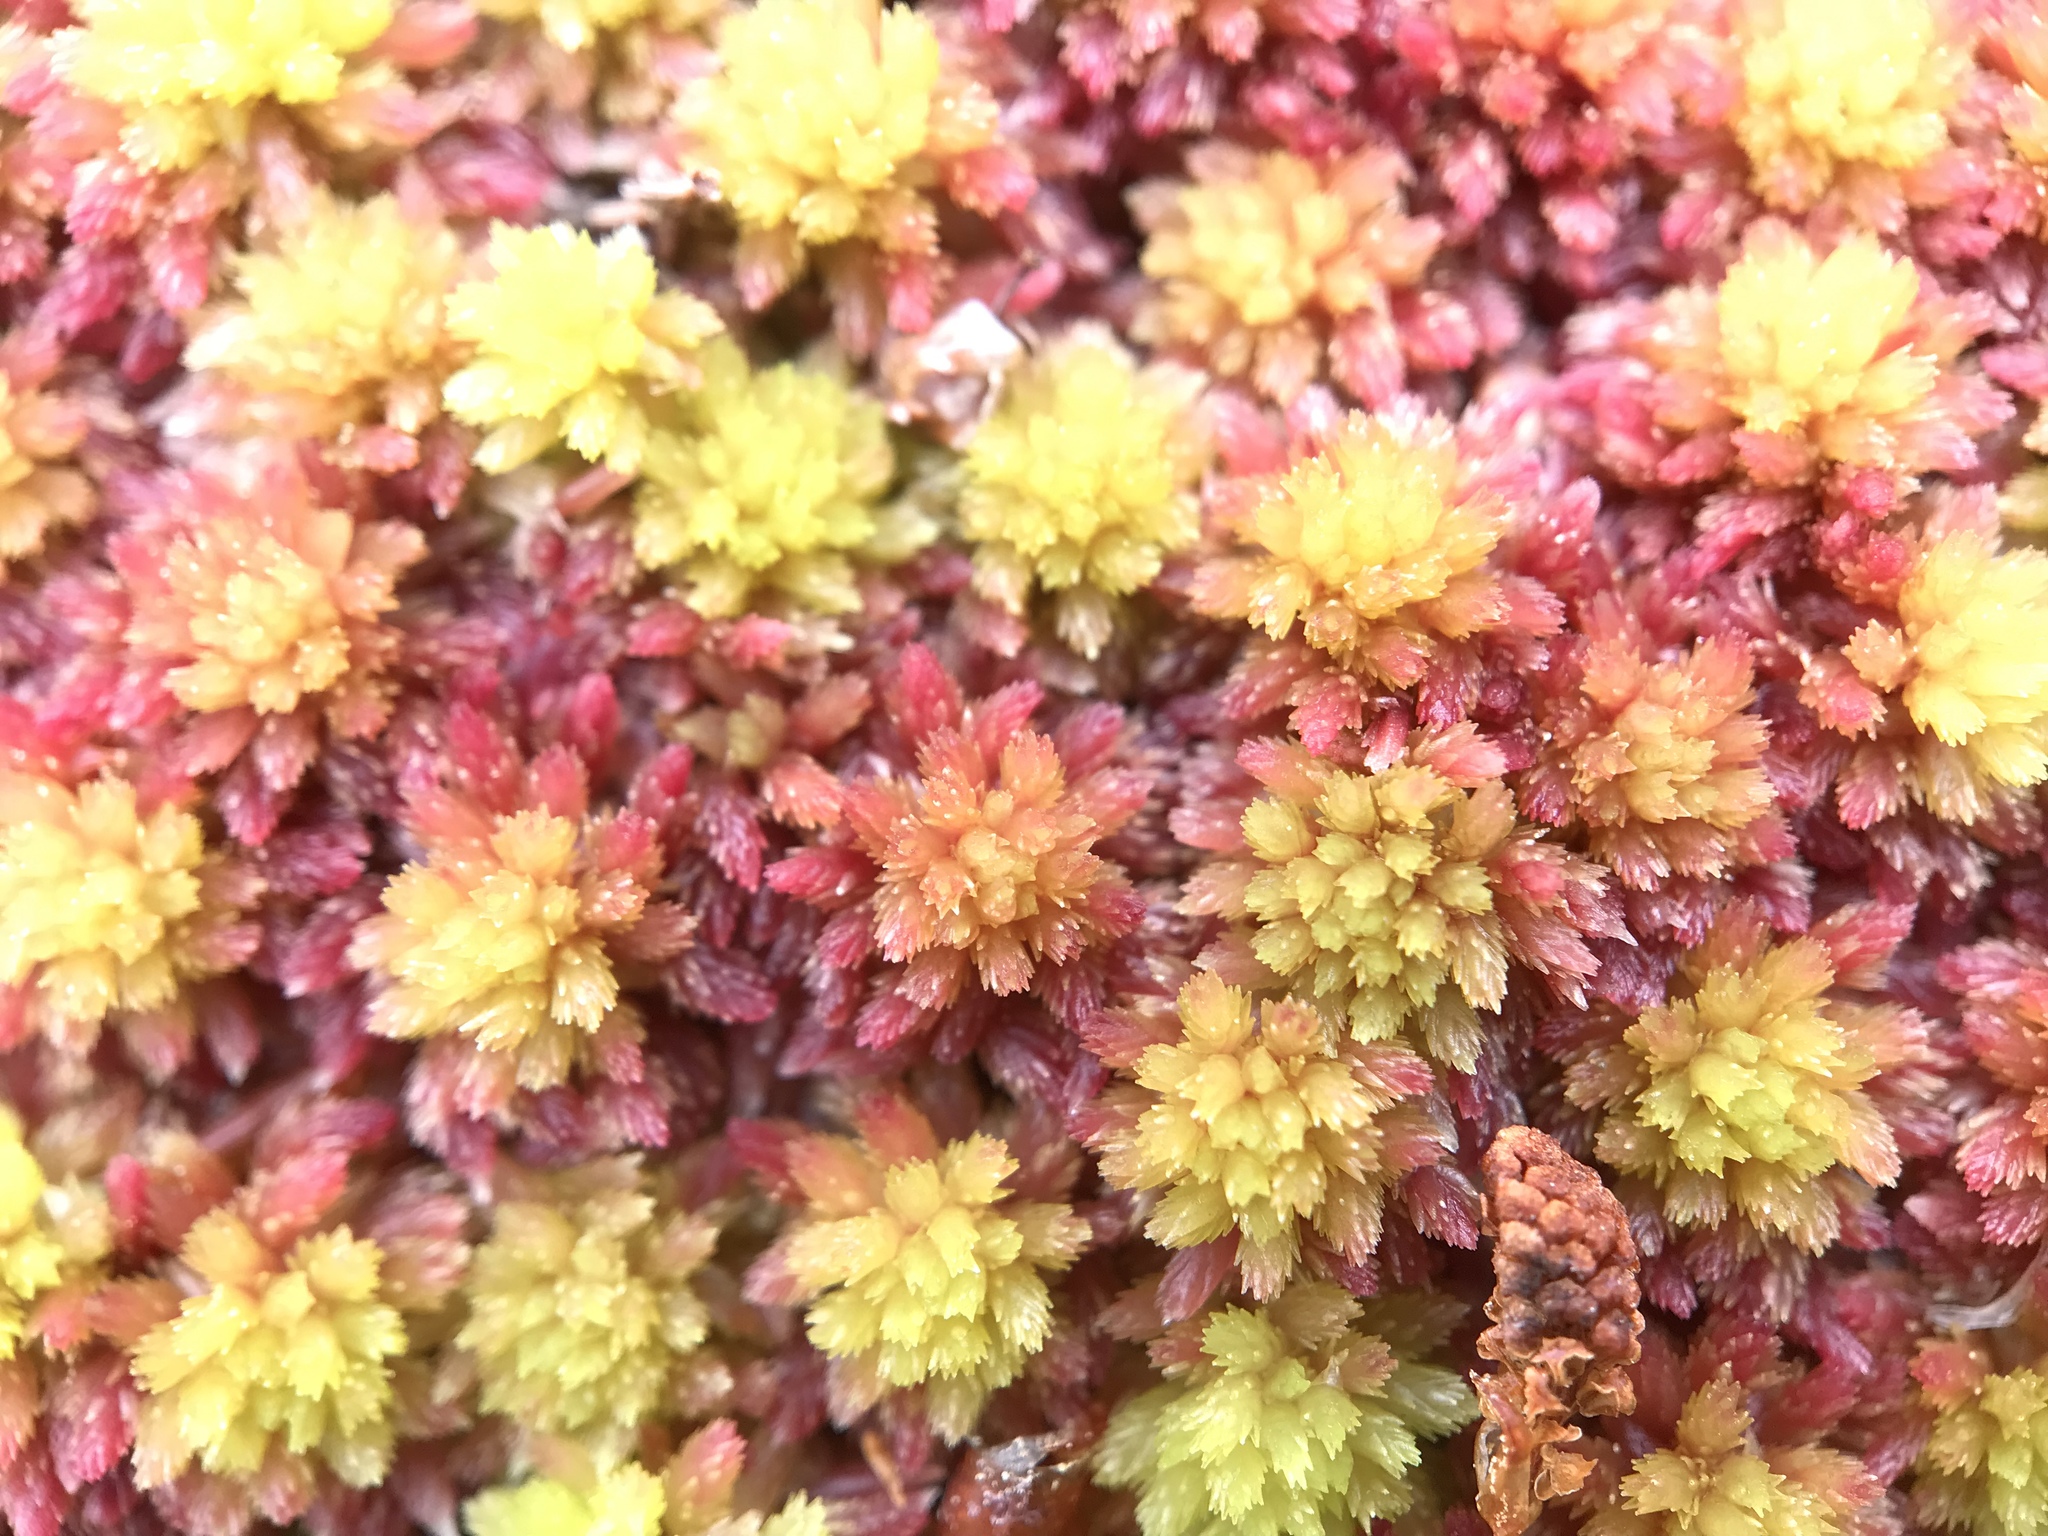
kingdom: Plantae
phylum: Bryophyta
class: Sphagnopsida
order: Sphagnales
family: Sphagnaceae
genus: Sphagnum
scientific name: Sphagnum capillifolium
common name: Small red peat moss
